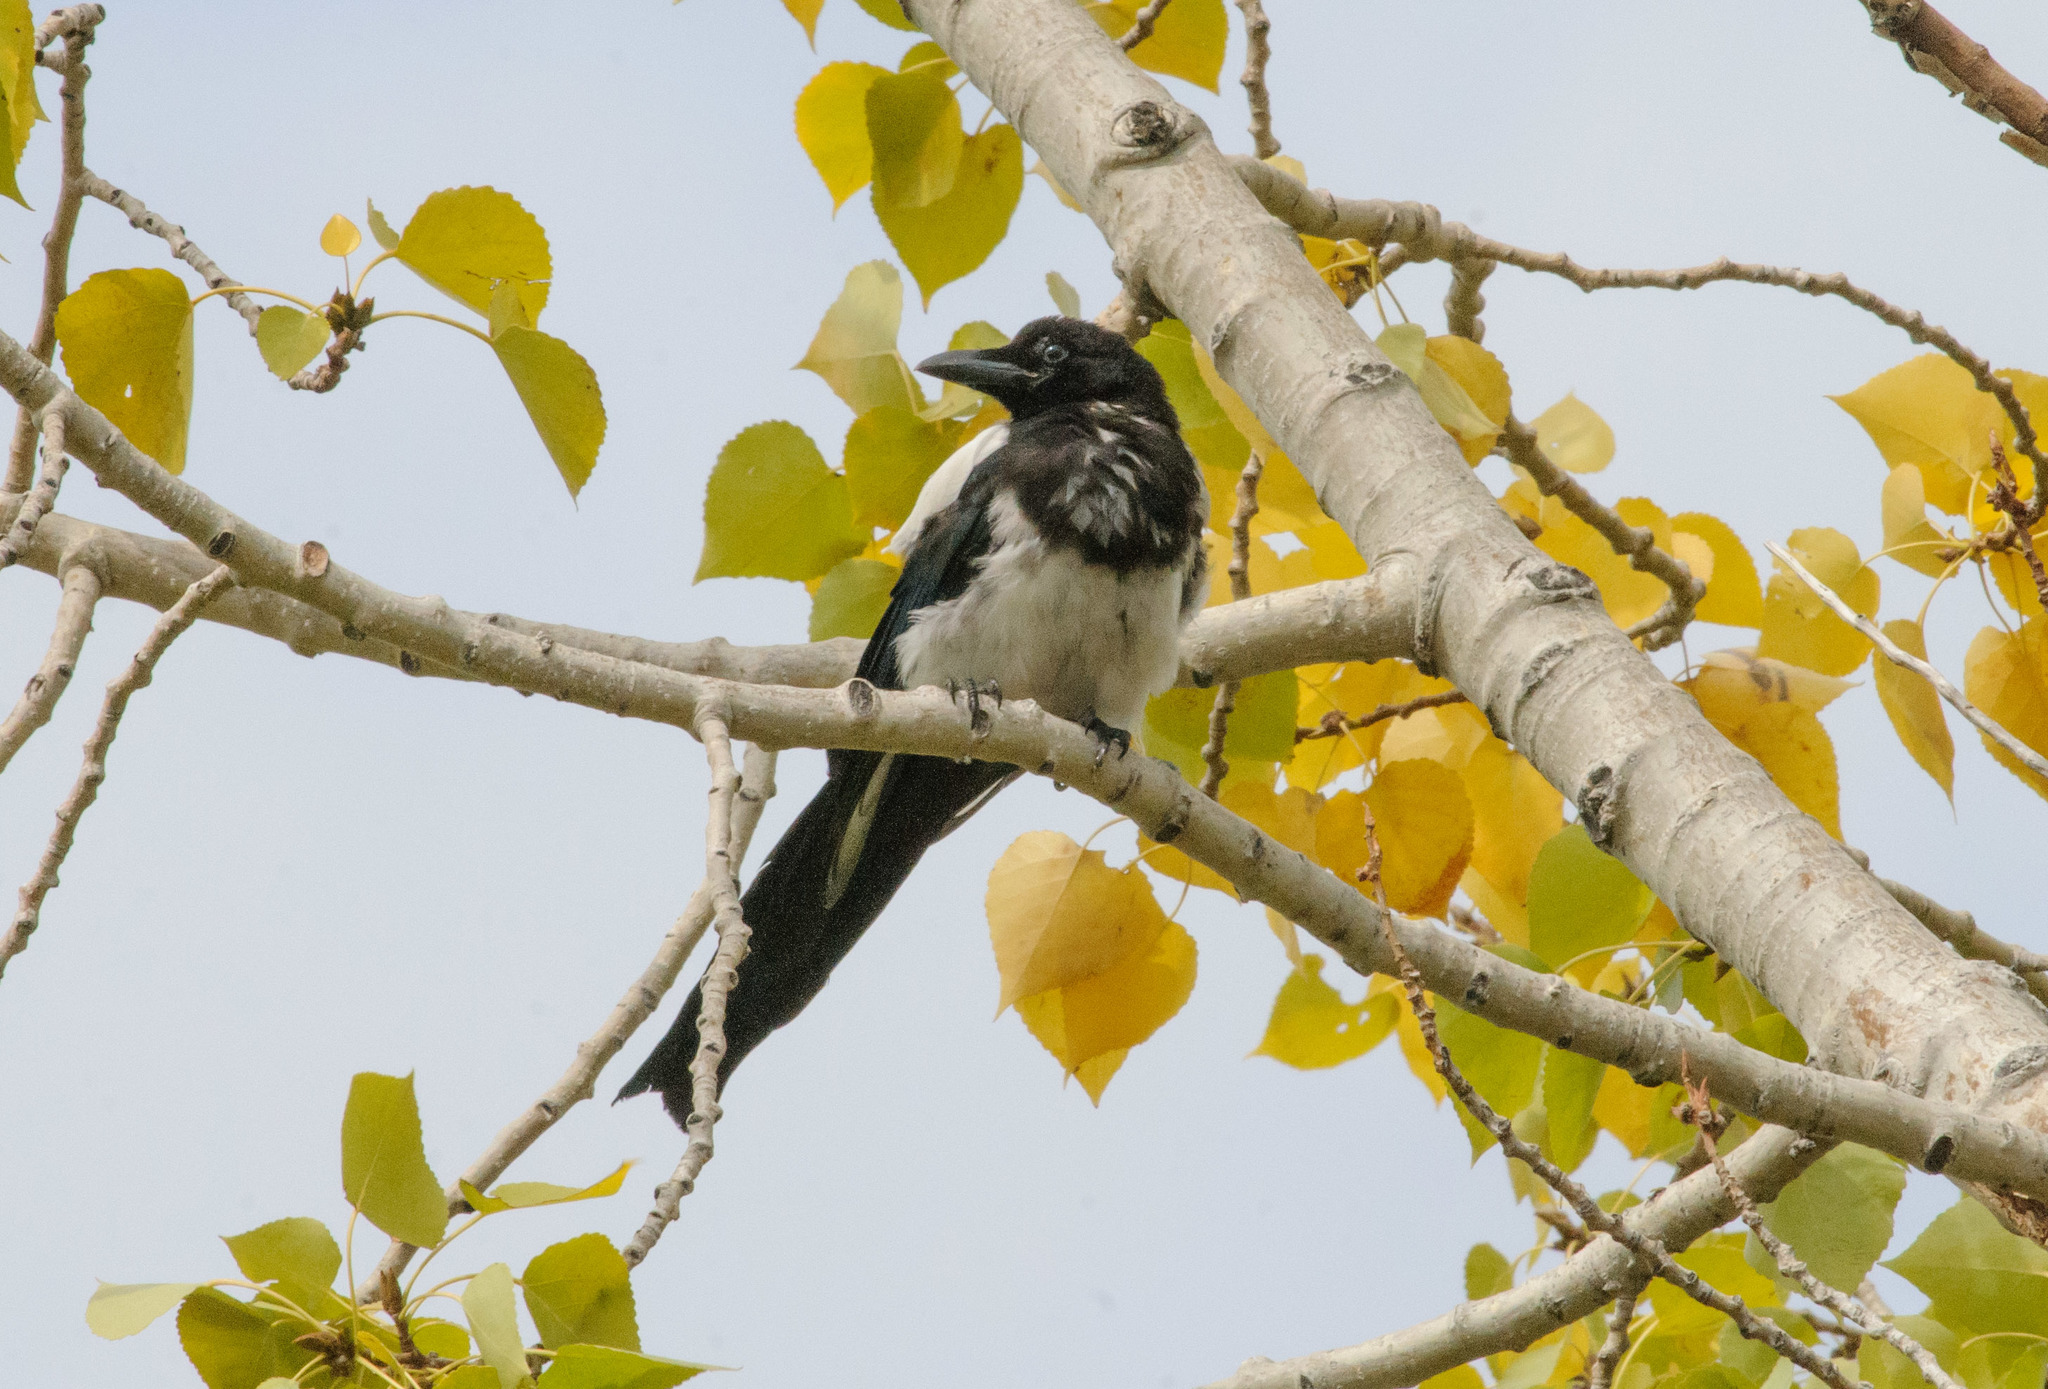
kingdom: Animalia
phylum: Chordata
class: Aves
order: Passeriformes
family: Corvidae
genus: Pica
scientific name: Pica hudsonia
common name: Black-billed magpie
